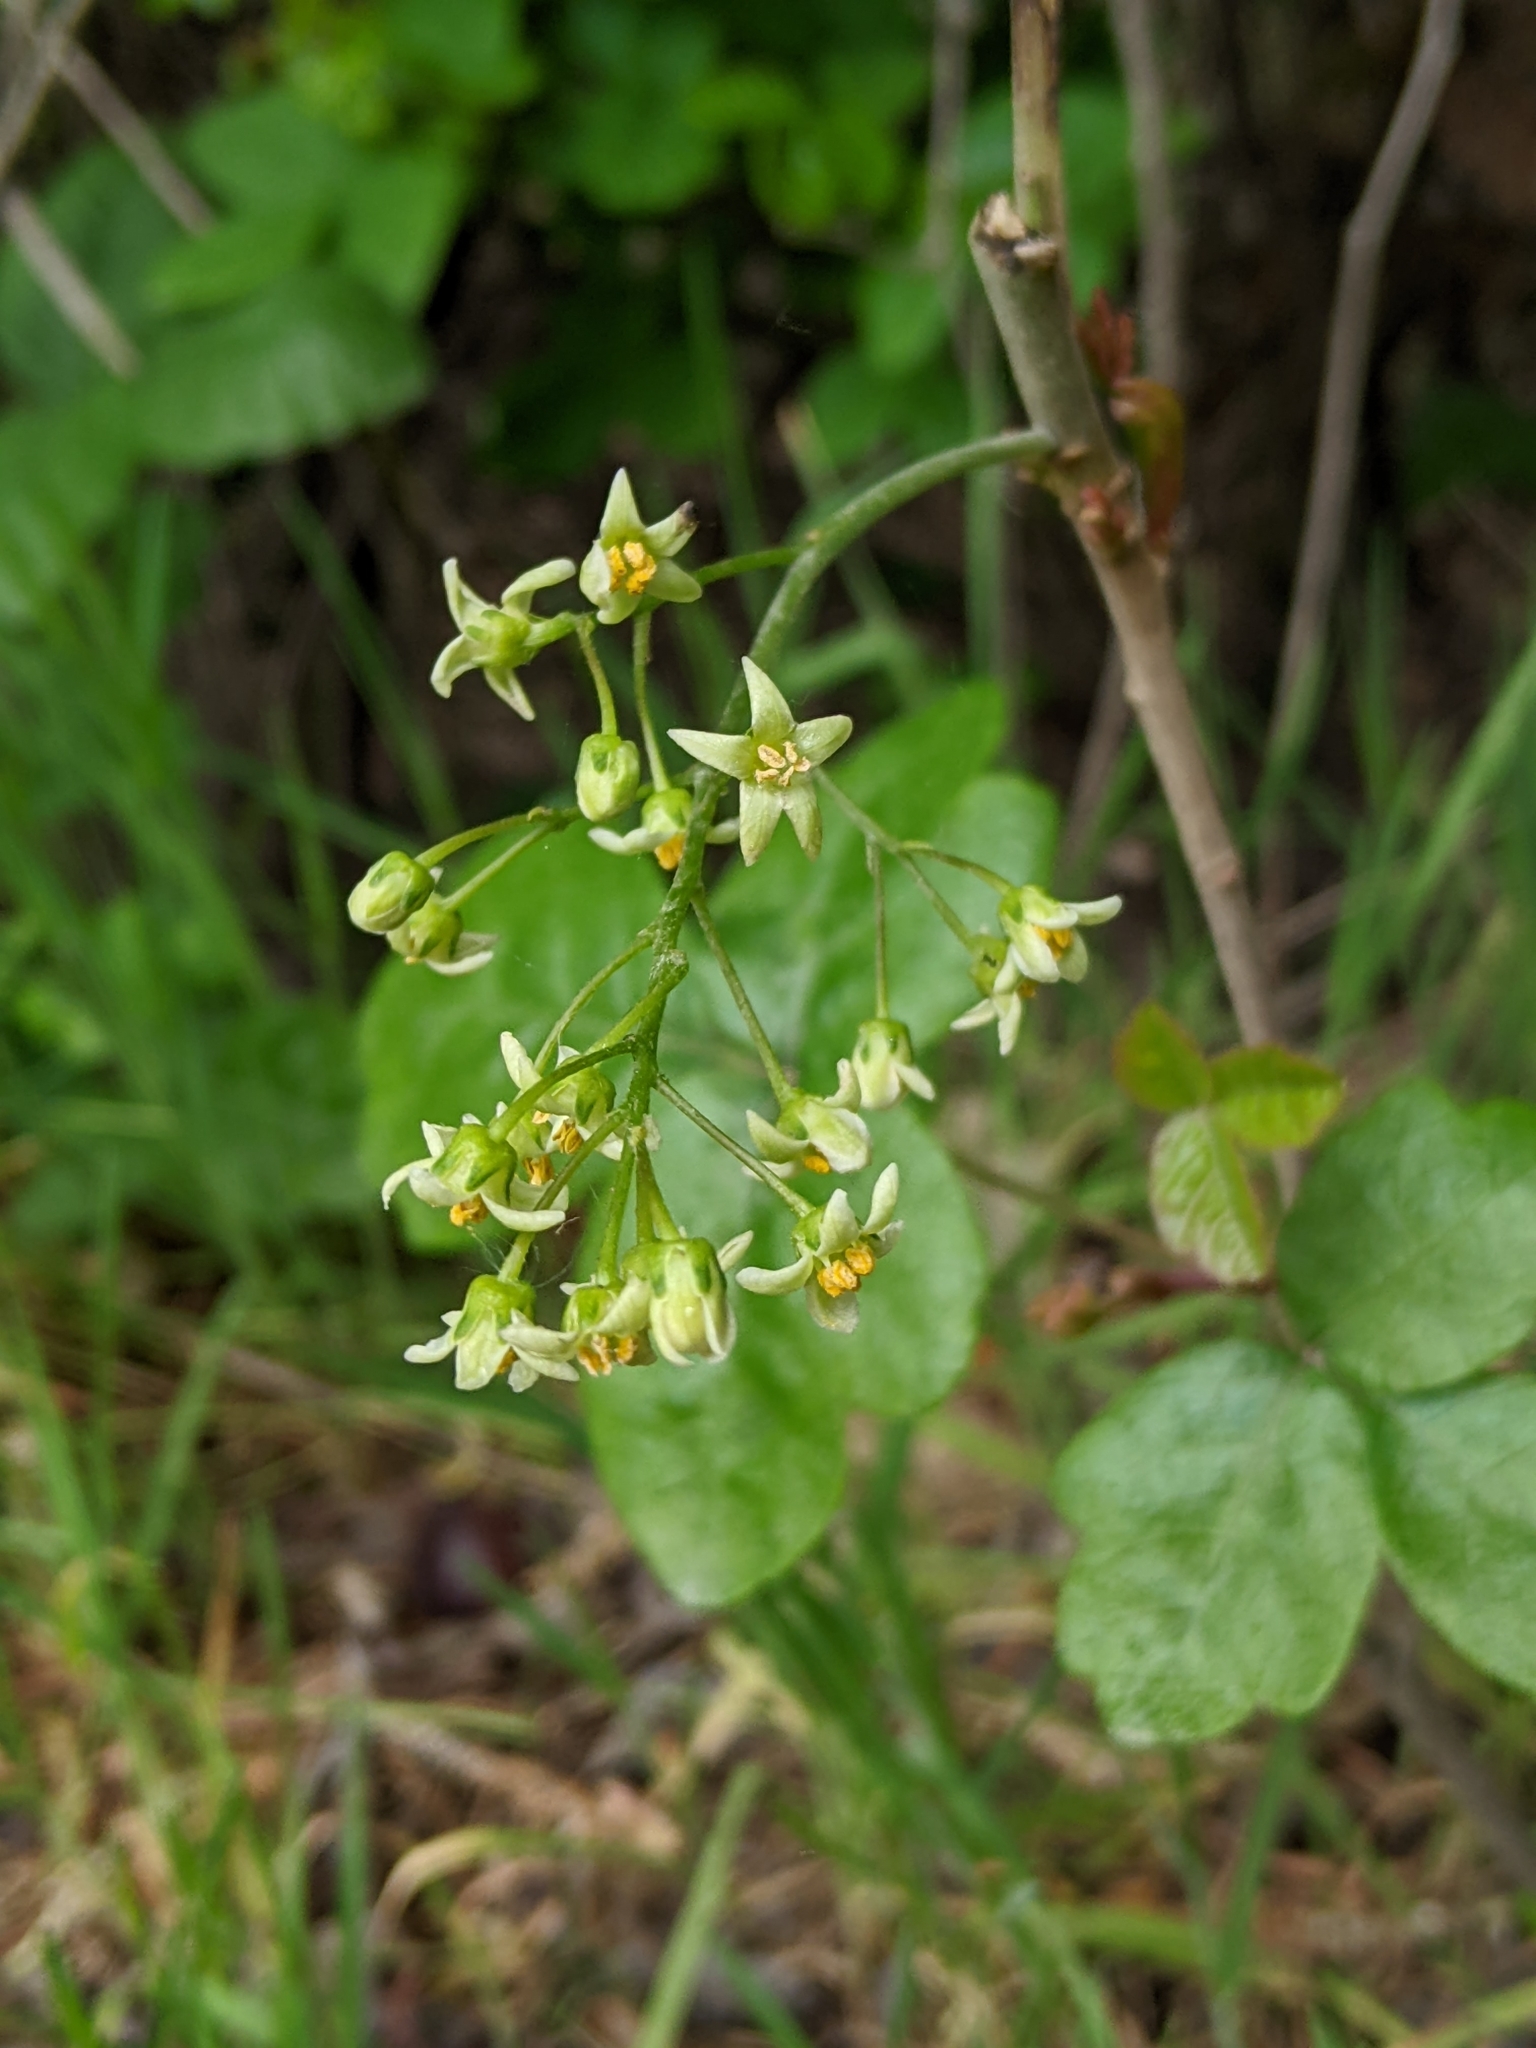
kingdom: Plantae
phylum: Tracheophyta
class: Magnoliopsida
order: Sapindales
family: Anacardiaceae
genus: Toxicodendron
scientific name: Toxicodendron diversilobum
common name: Pacific poison-oak
